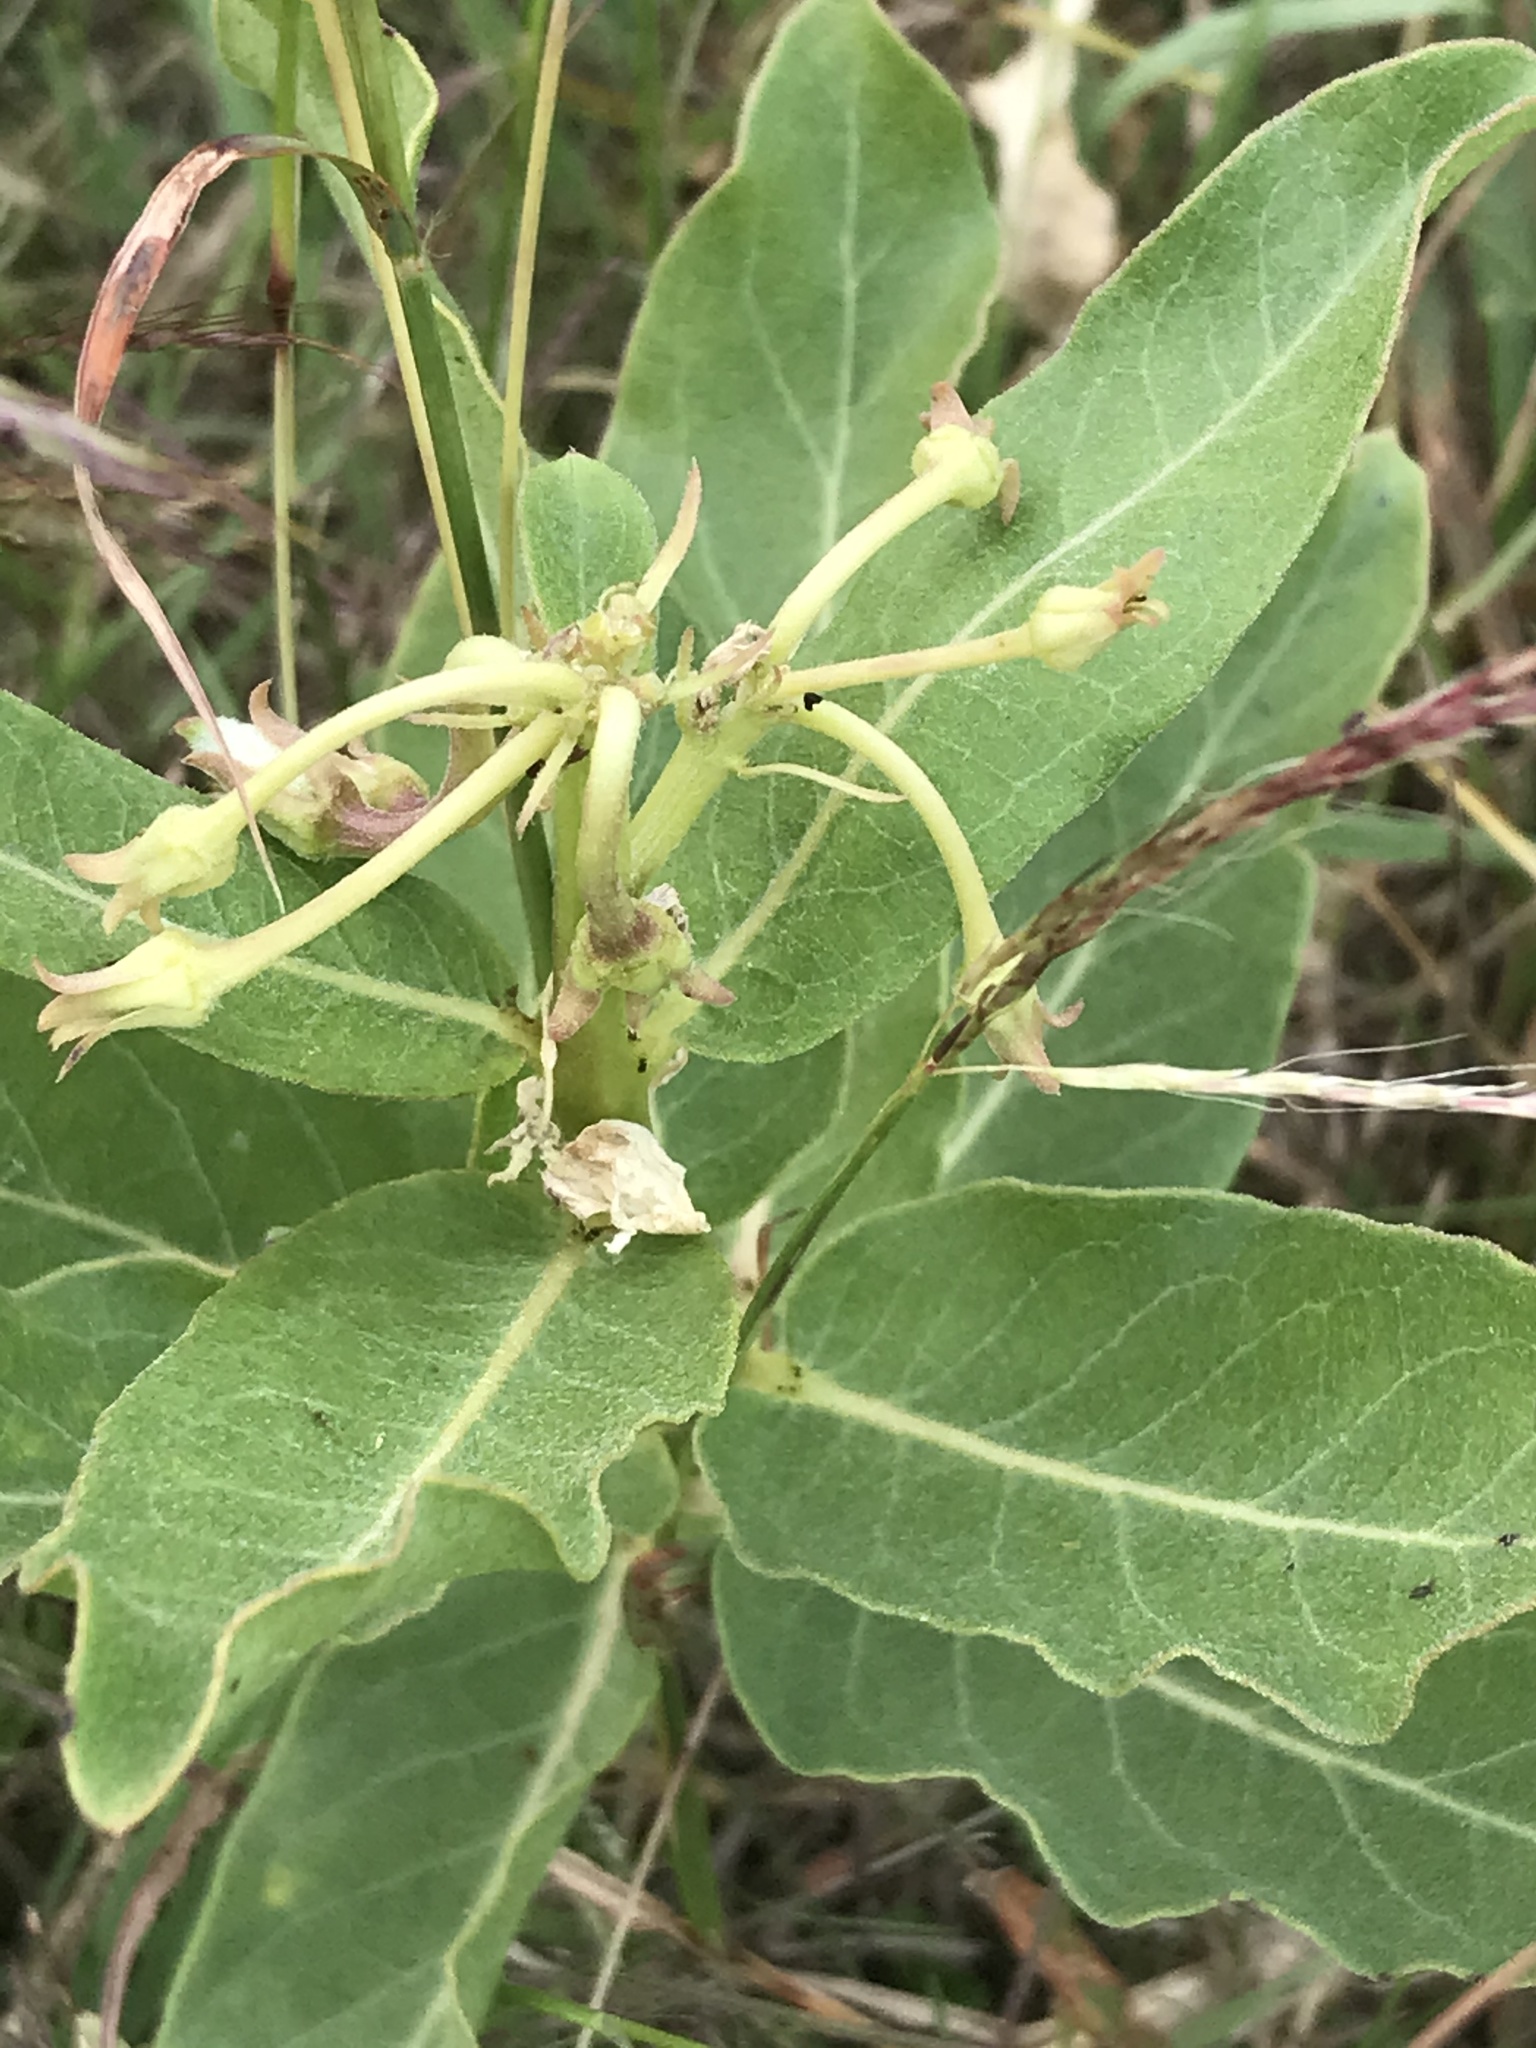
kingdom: Plantae
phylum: Tracheophyta
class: Magnoliopsida
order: Gentianales
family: Apocynaceae
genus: Asclepias
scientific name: Asclepias viridis
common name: Antelope-horns
